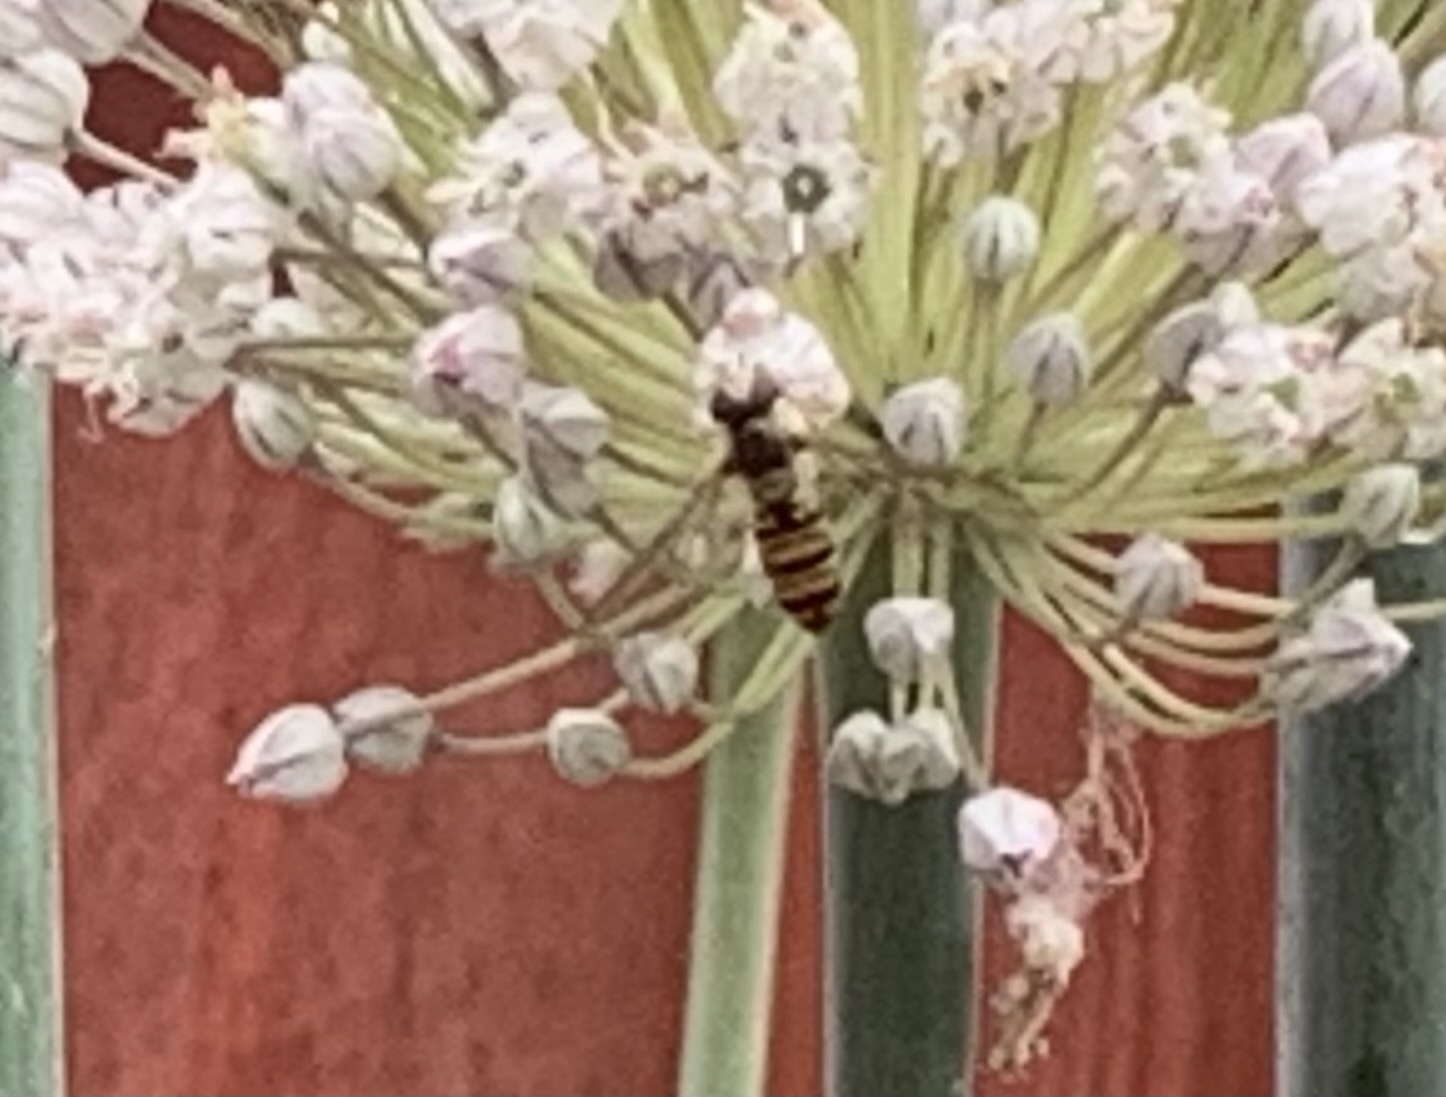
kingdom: Animalia
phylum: Arthropoda
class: Insecta
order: Diptera
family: Syrphidae
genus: Sphaerophoria
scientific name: Sphaerophoria
